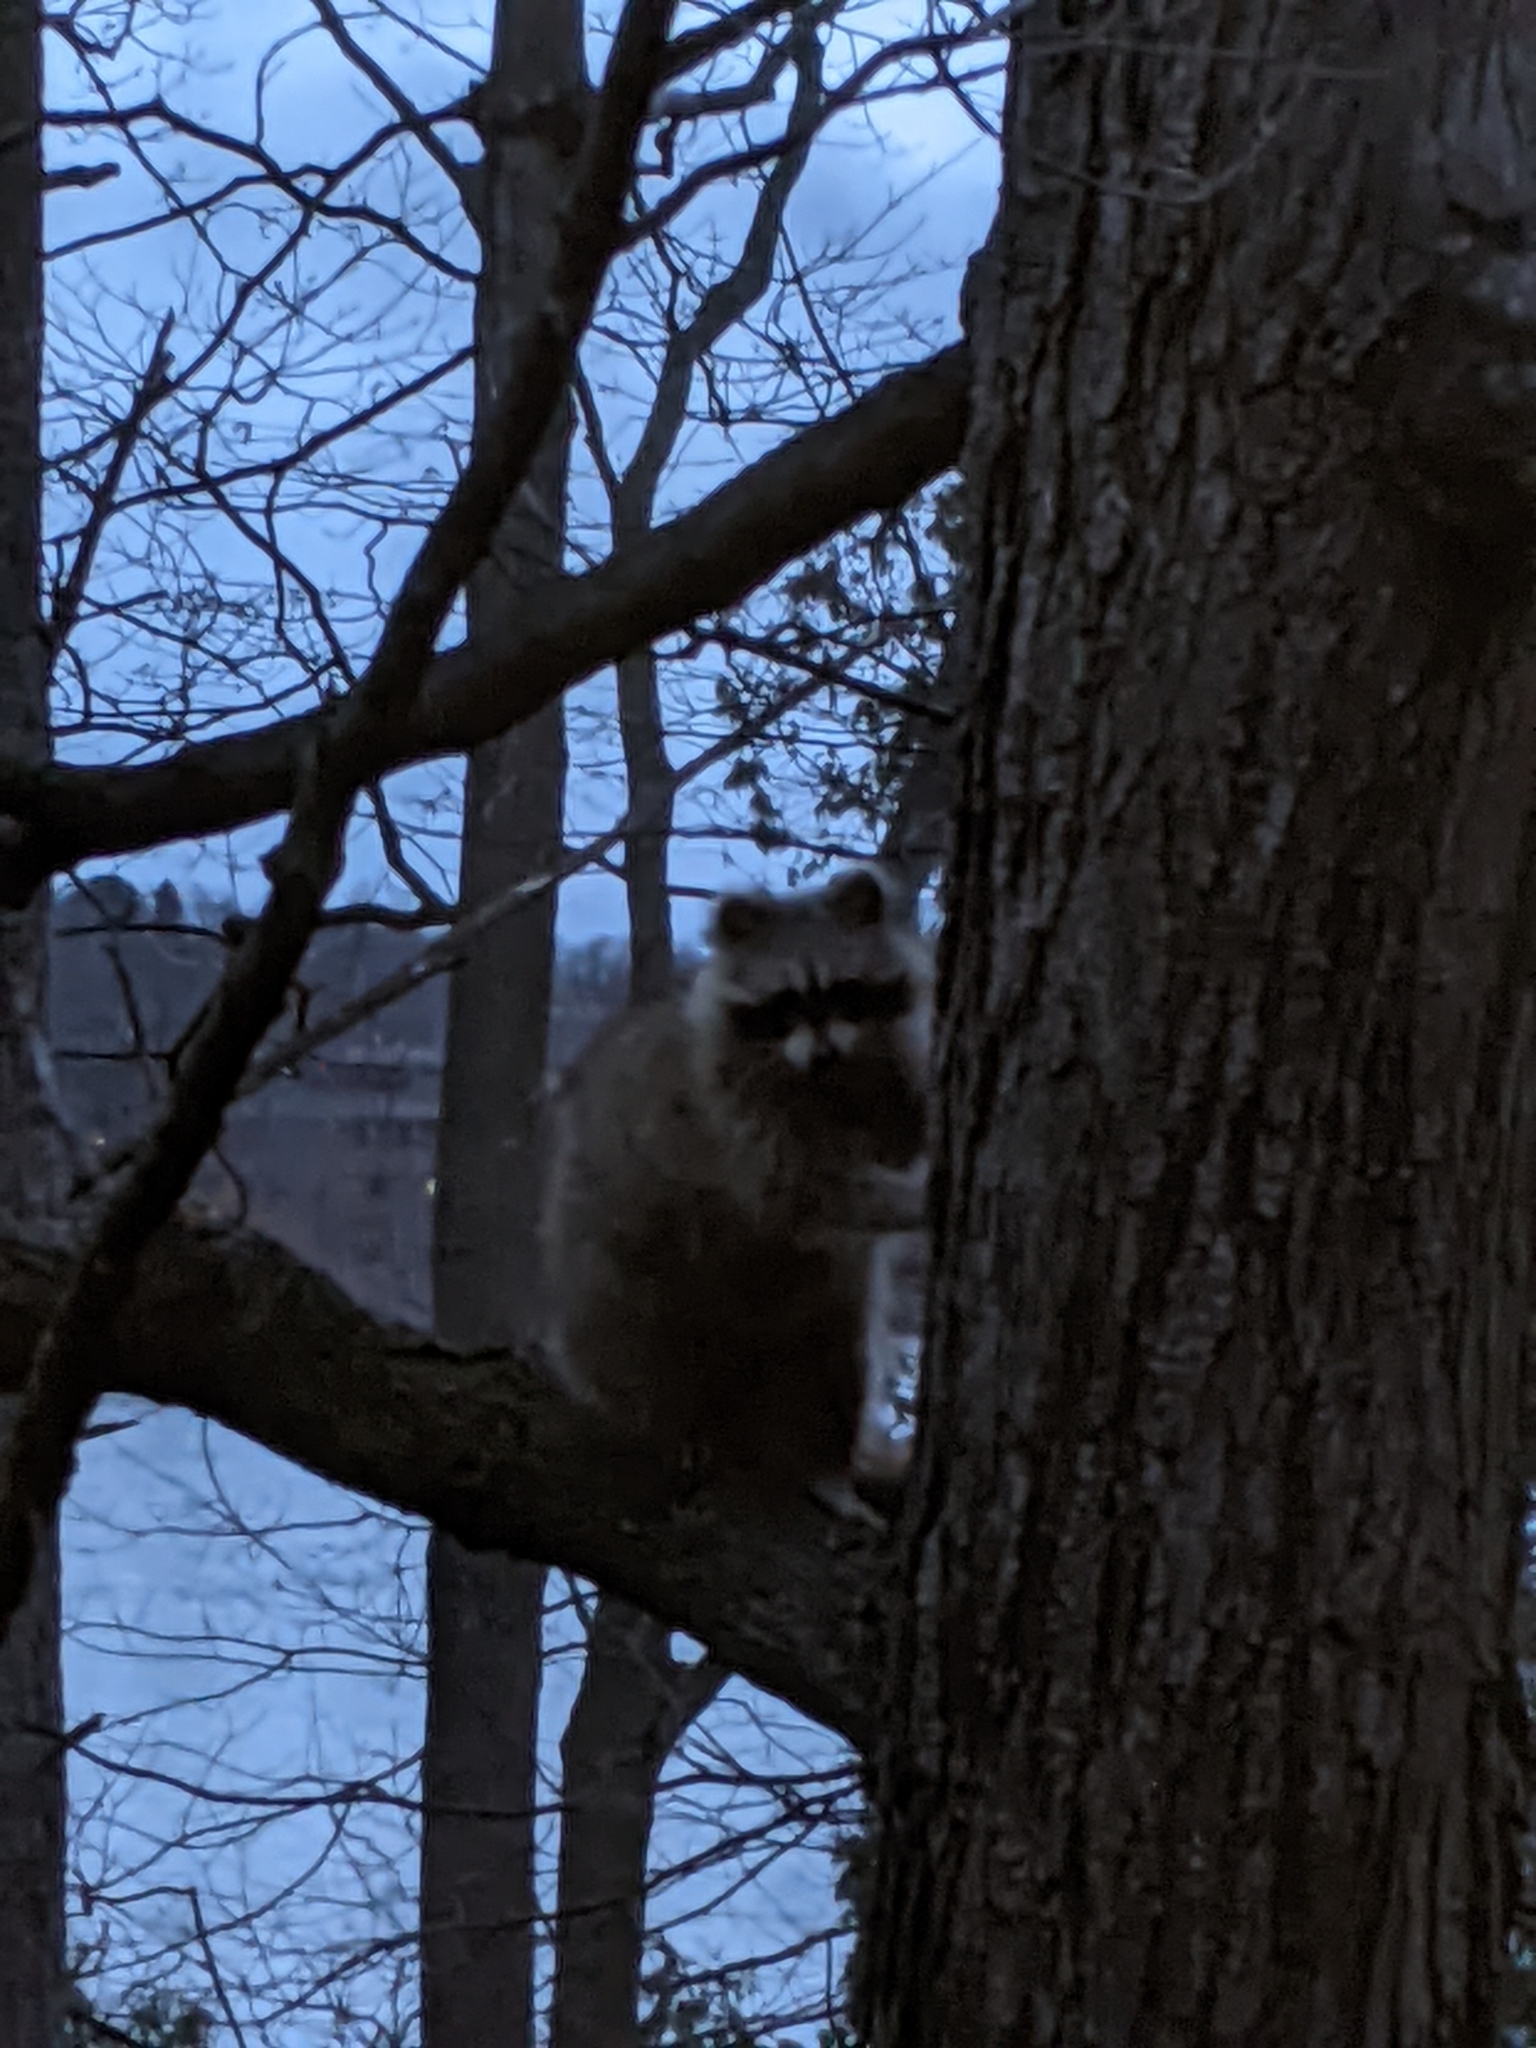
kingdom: Animalia
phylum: Chordata
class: Mammalia
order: Carnivora
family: Procyonidae
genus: Procyon
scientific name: Procyon lotor
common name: Raccoon
